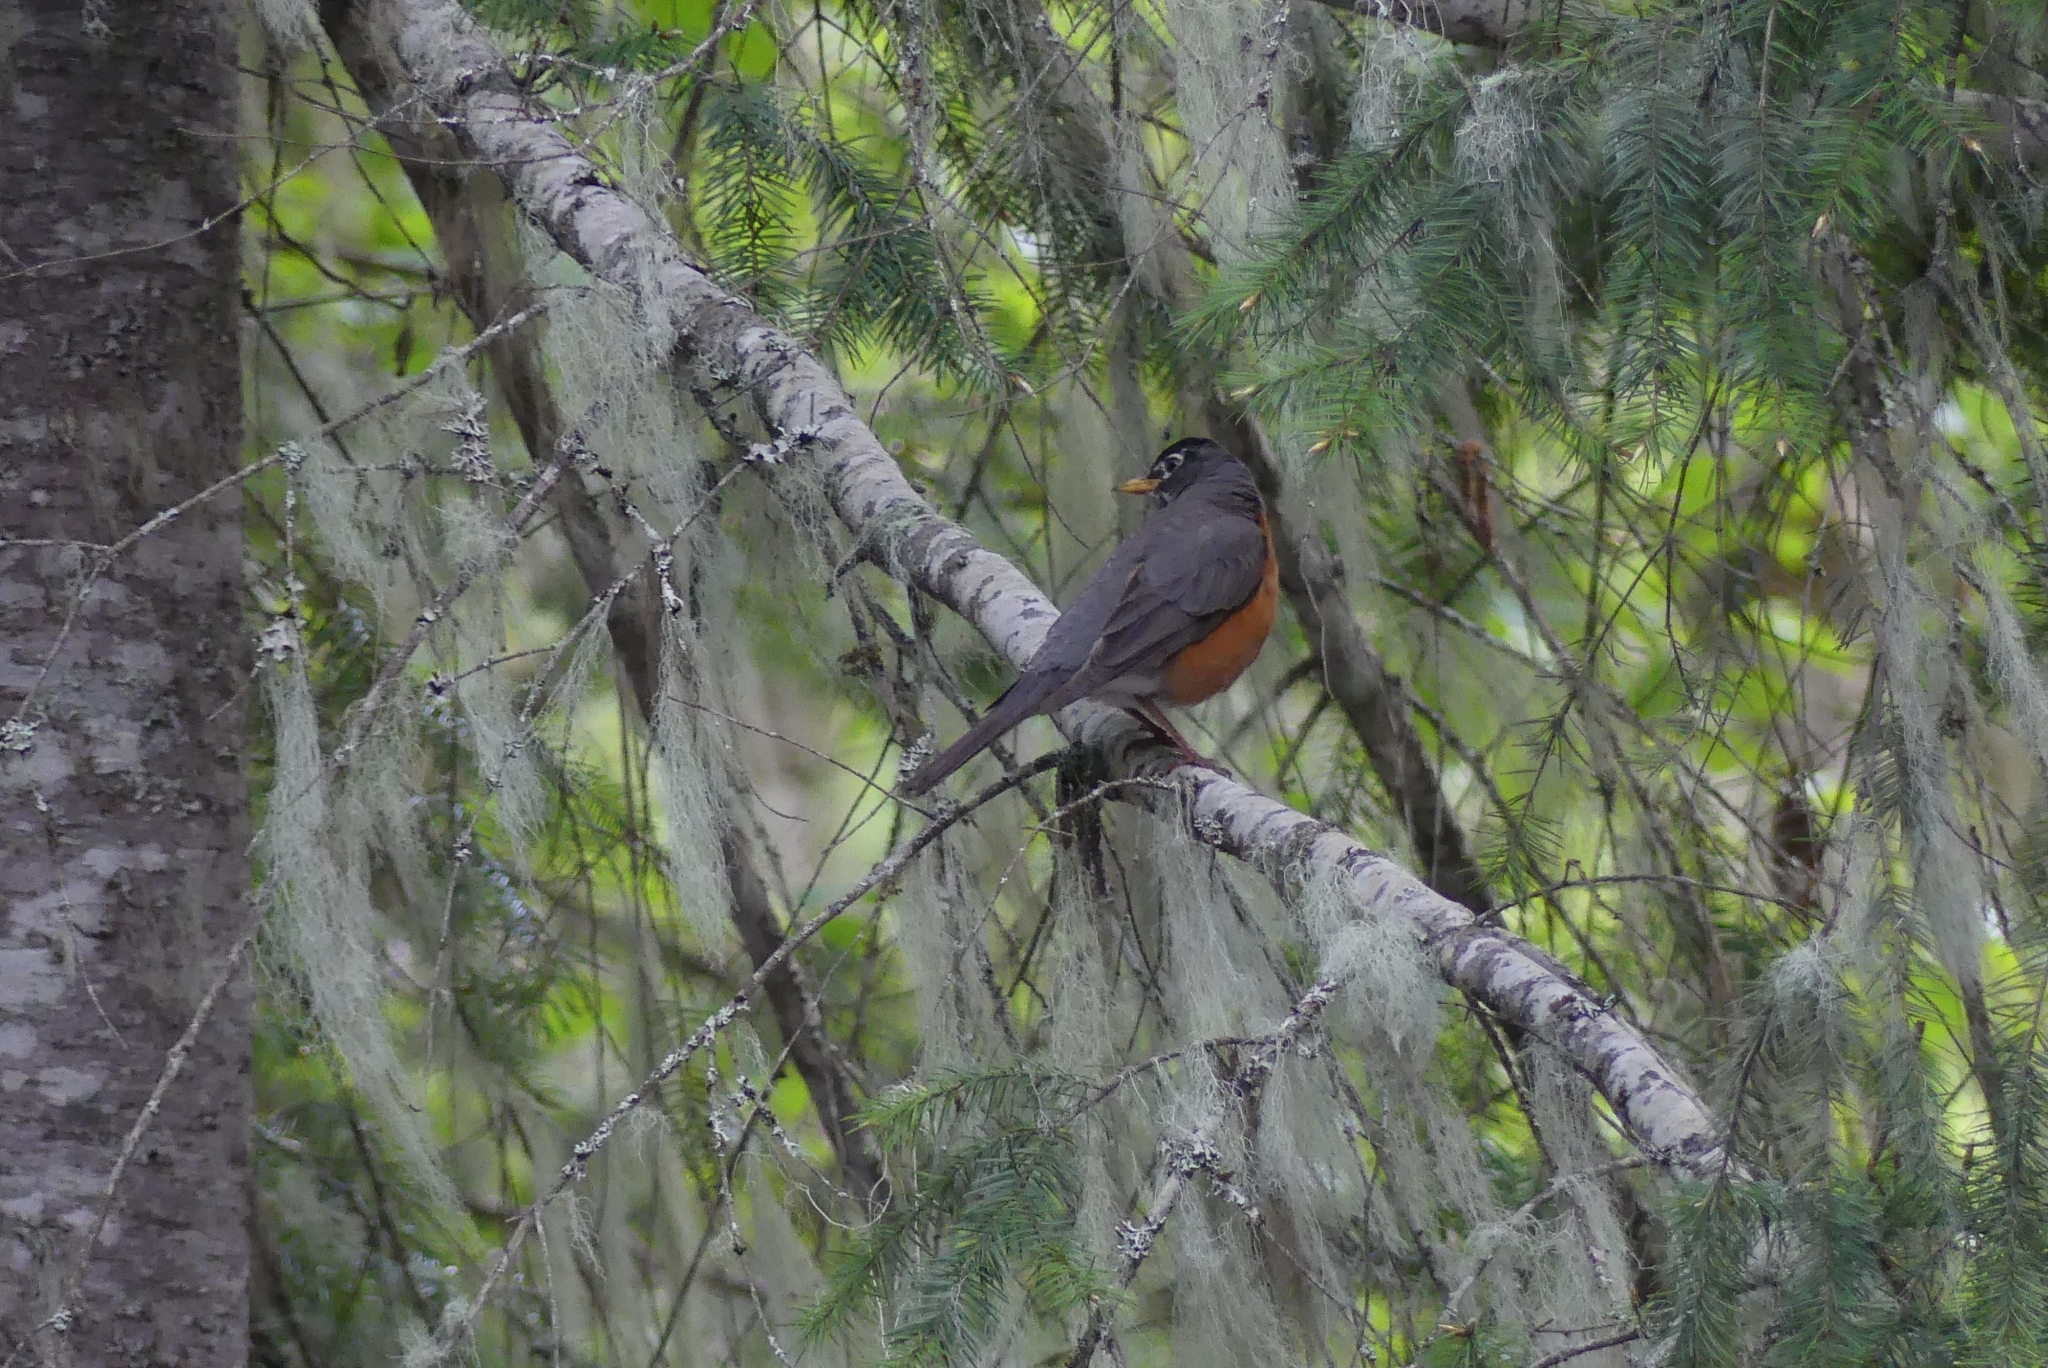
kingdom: Animalia
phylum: Chordata
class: Aves
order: Passeriformes
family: Turdidae
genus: Turdus
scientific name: Turdus migratorius
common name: American robin
